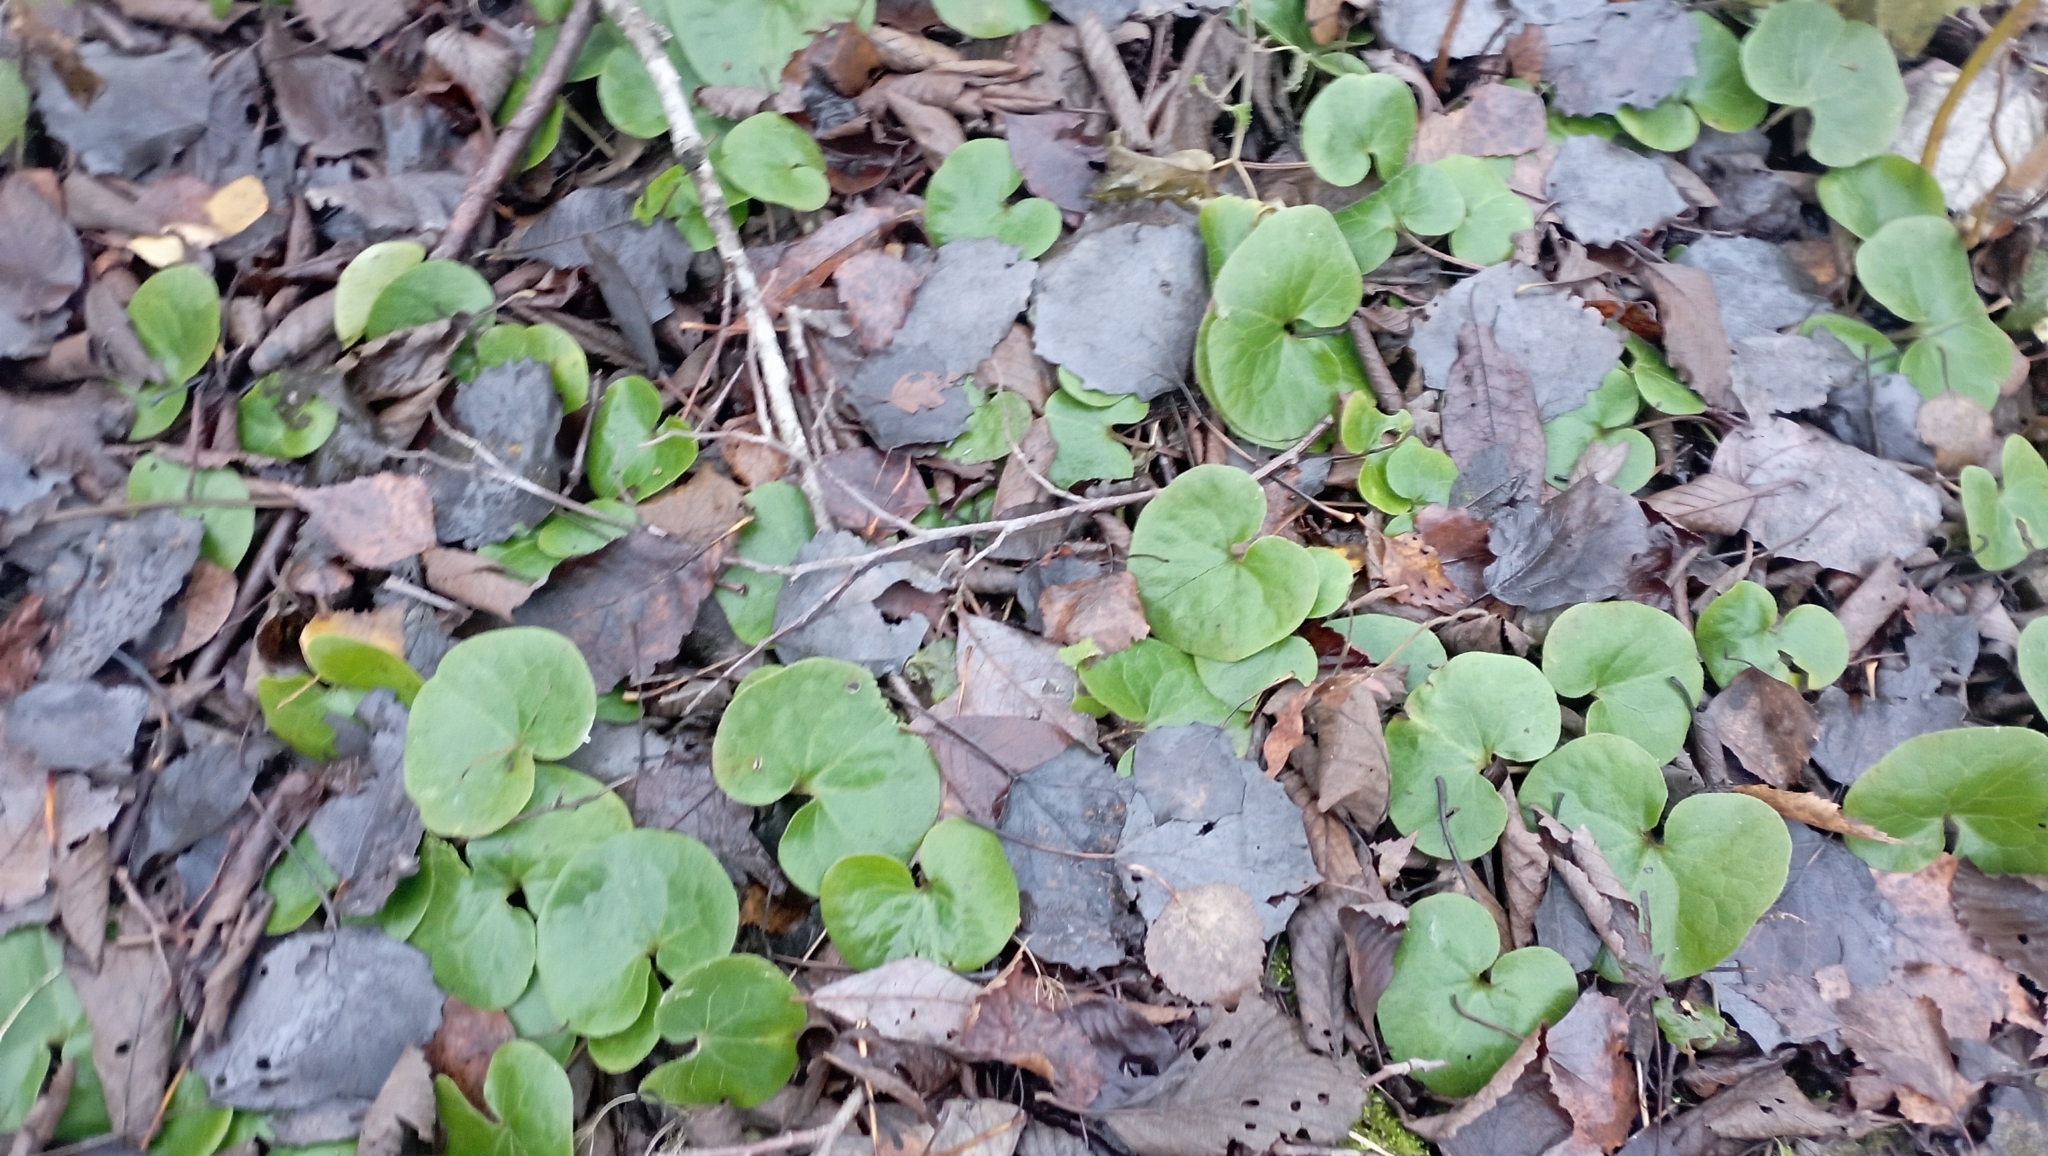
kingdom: Plantae
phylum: Tracheophyta
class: Magnoliopsida
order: Piperales
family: Aristolochiaceae
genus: Asarum
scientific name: Asarum europaeum
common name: Asarabacca
